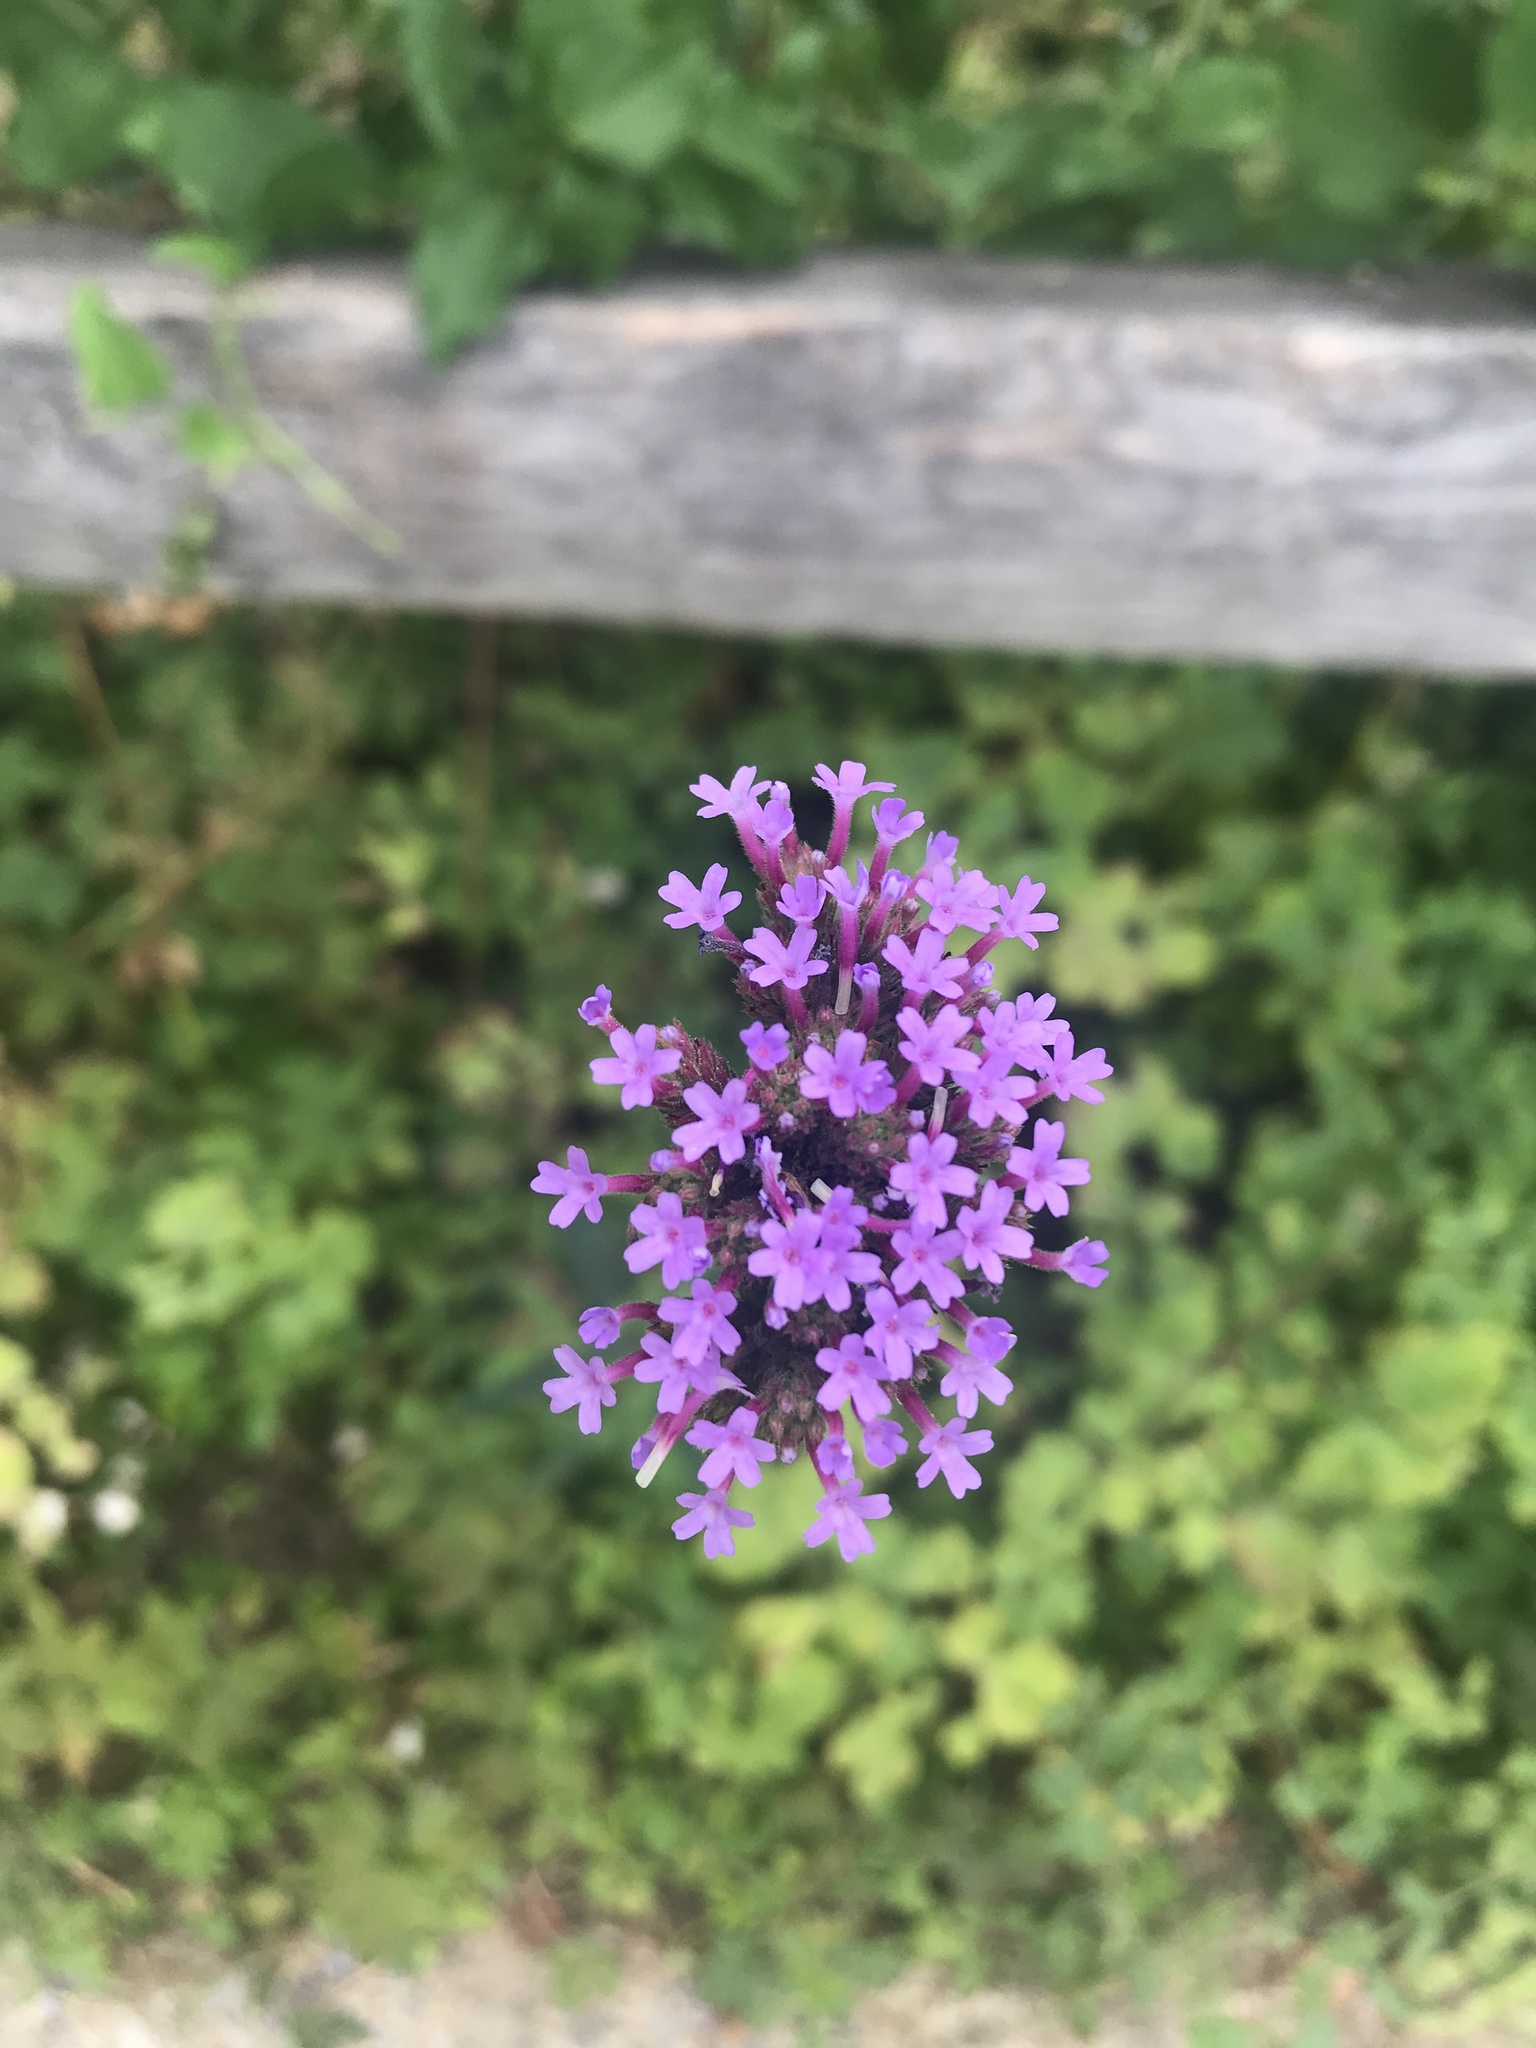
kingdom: Plantae
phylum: Tracheophyta
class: Magnoliopsida
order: Lamiales
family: Verbenaceae
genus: Verbena
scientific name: Verbena bonariensis
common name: Purpletop vervain
